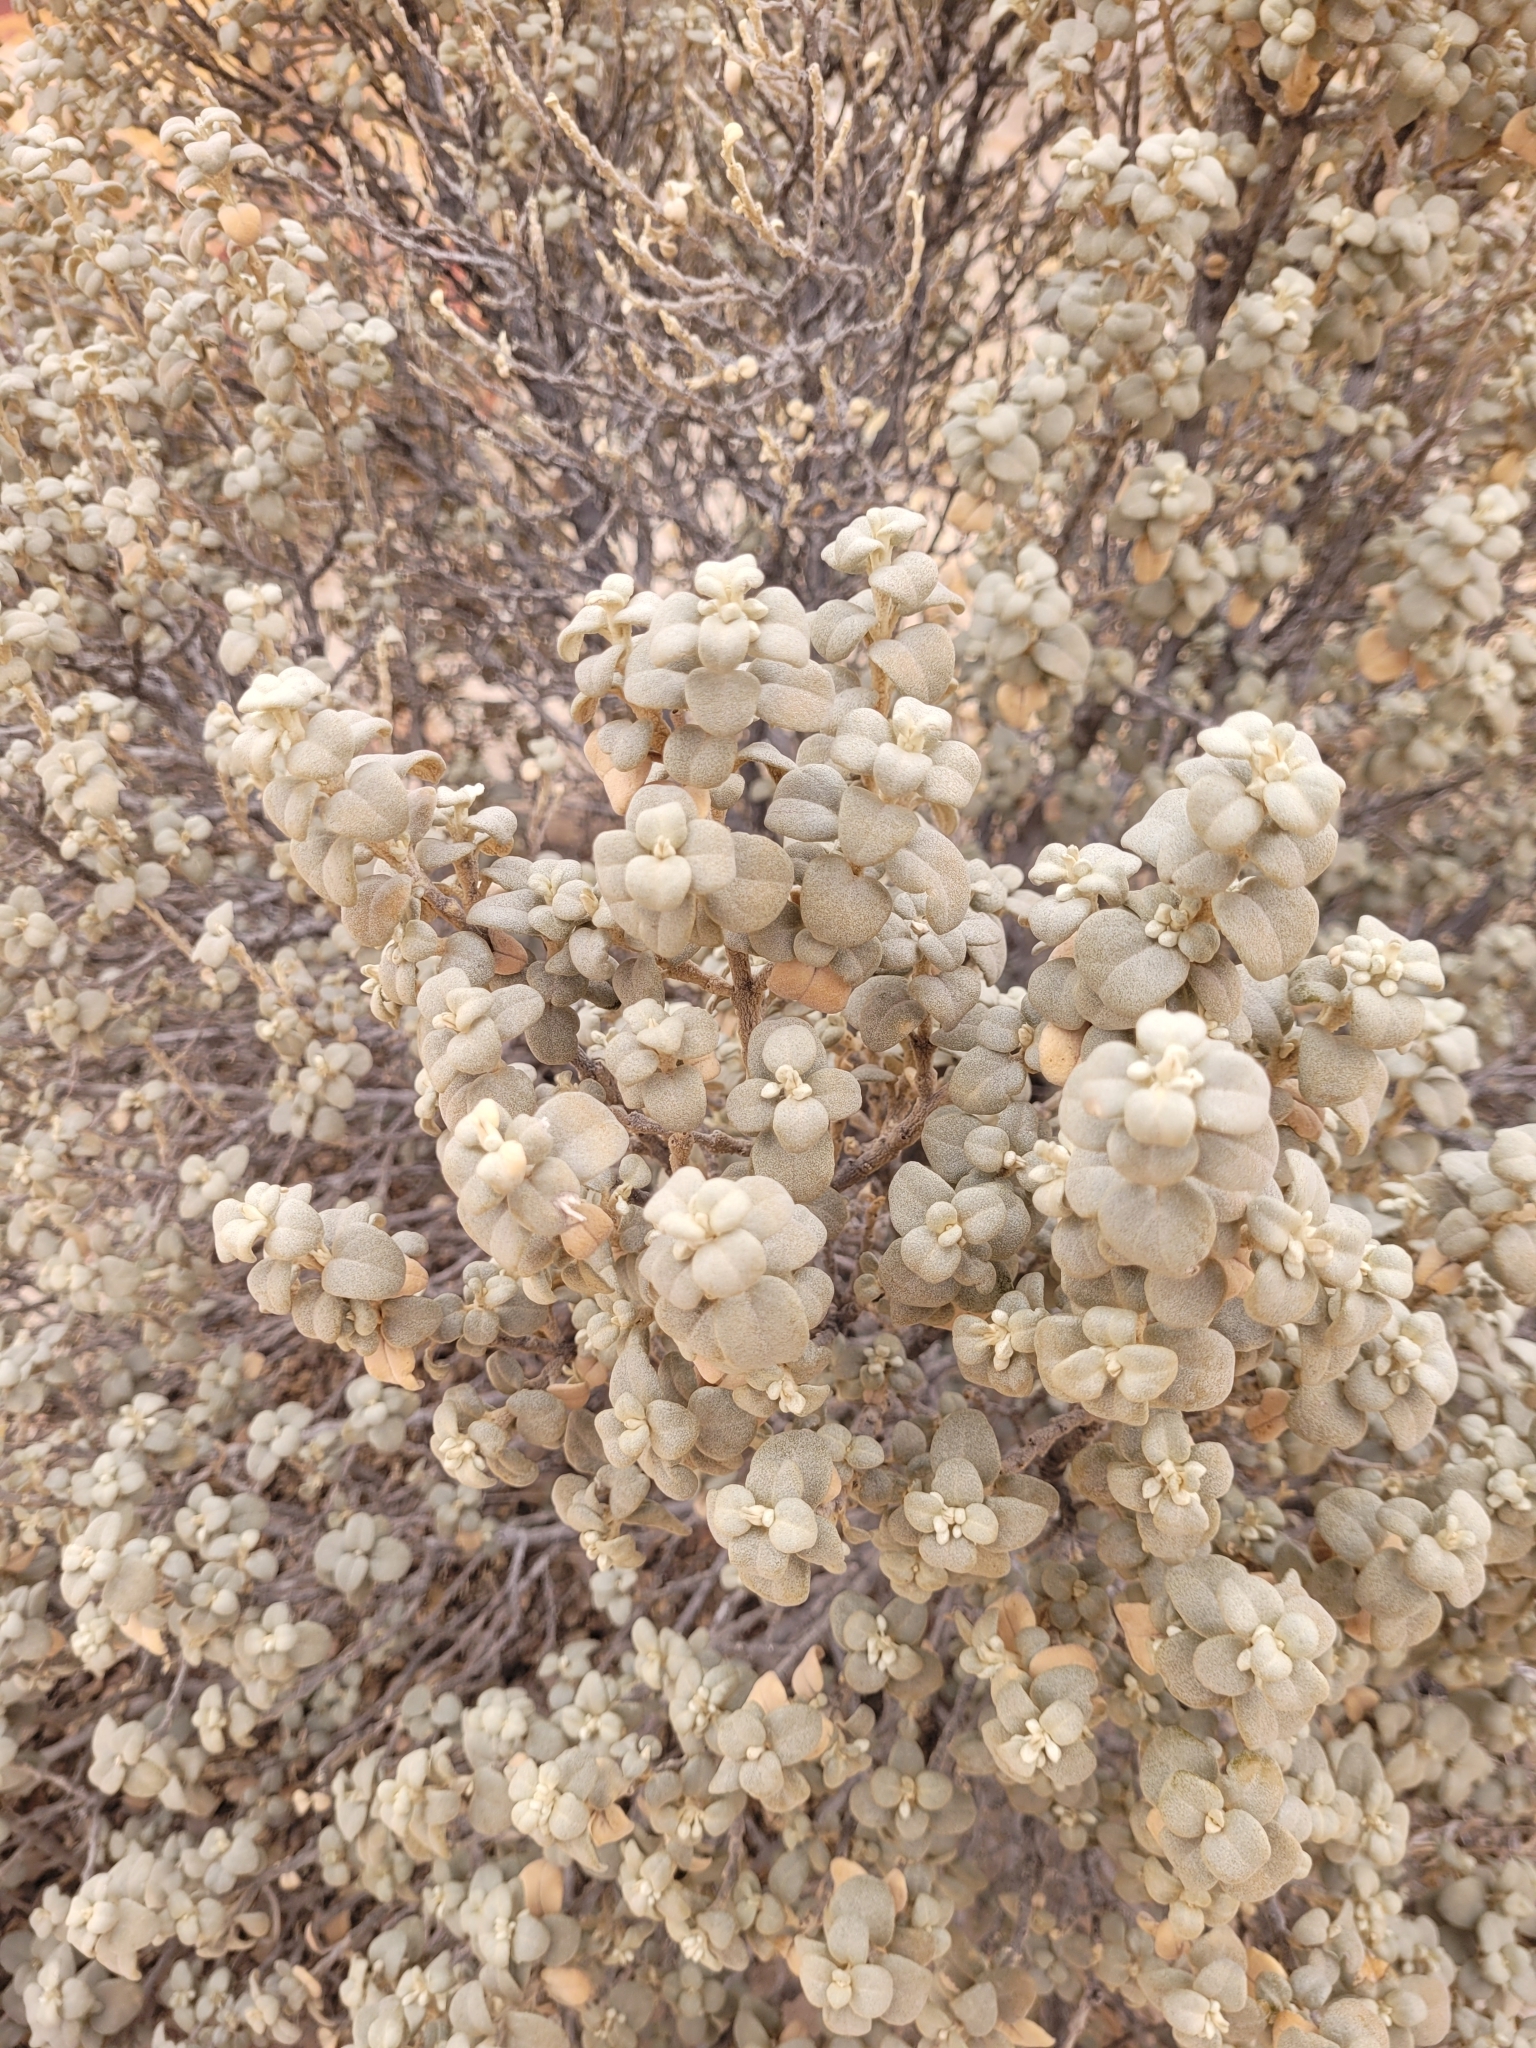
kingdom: Plantae
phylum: Tracheophyta
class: Magnoliopsida
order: Rosales
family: Elaeagnaceae
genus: Shepherdia
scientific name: Shepherdia rotundifolia
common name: Silverscale
